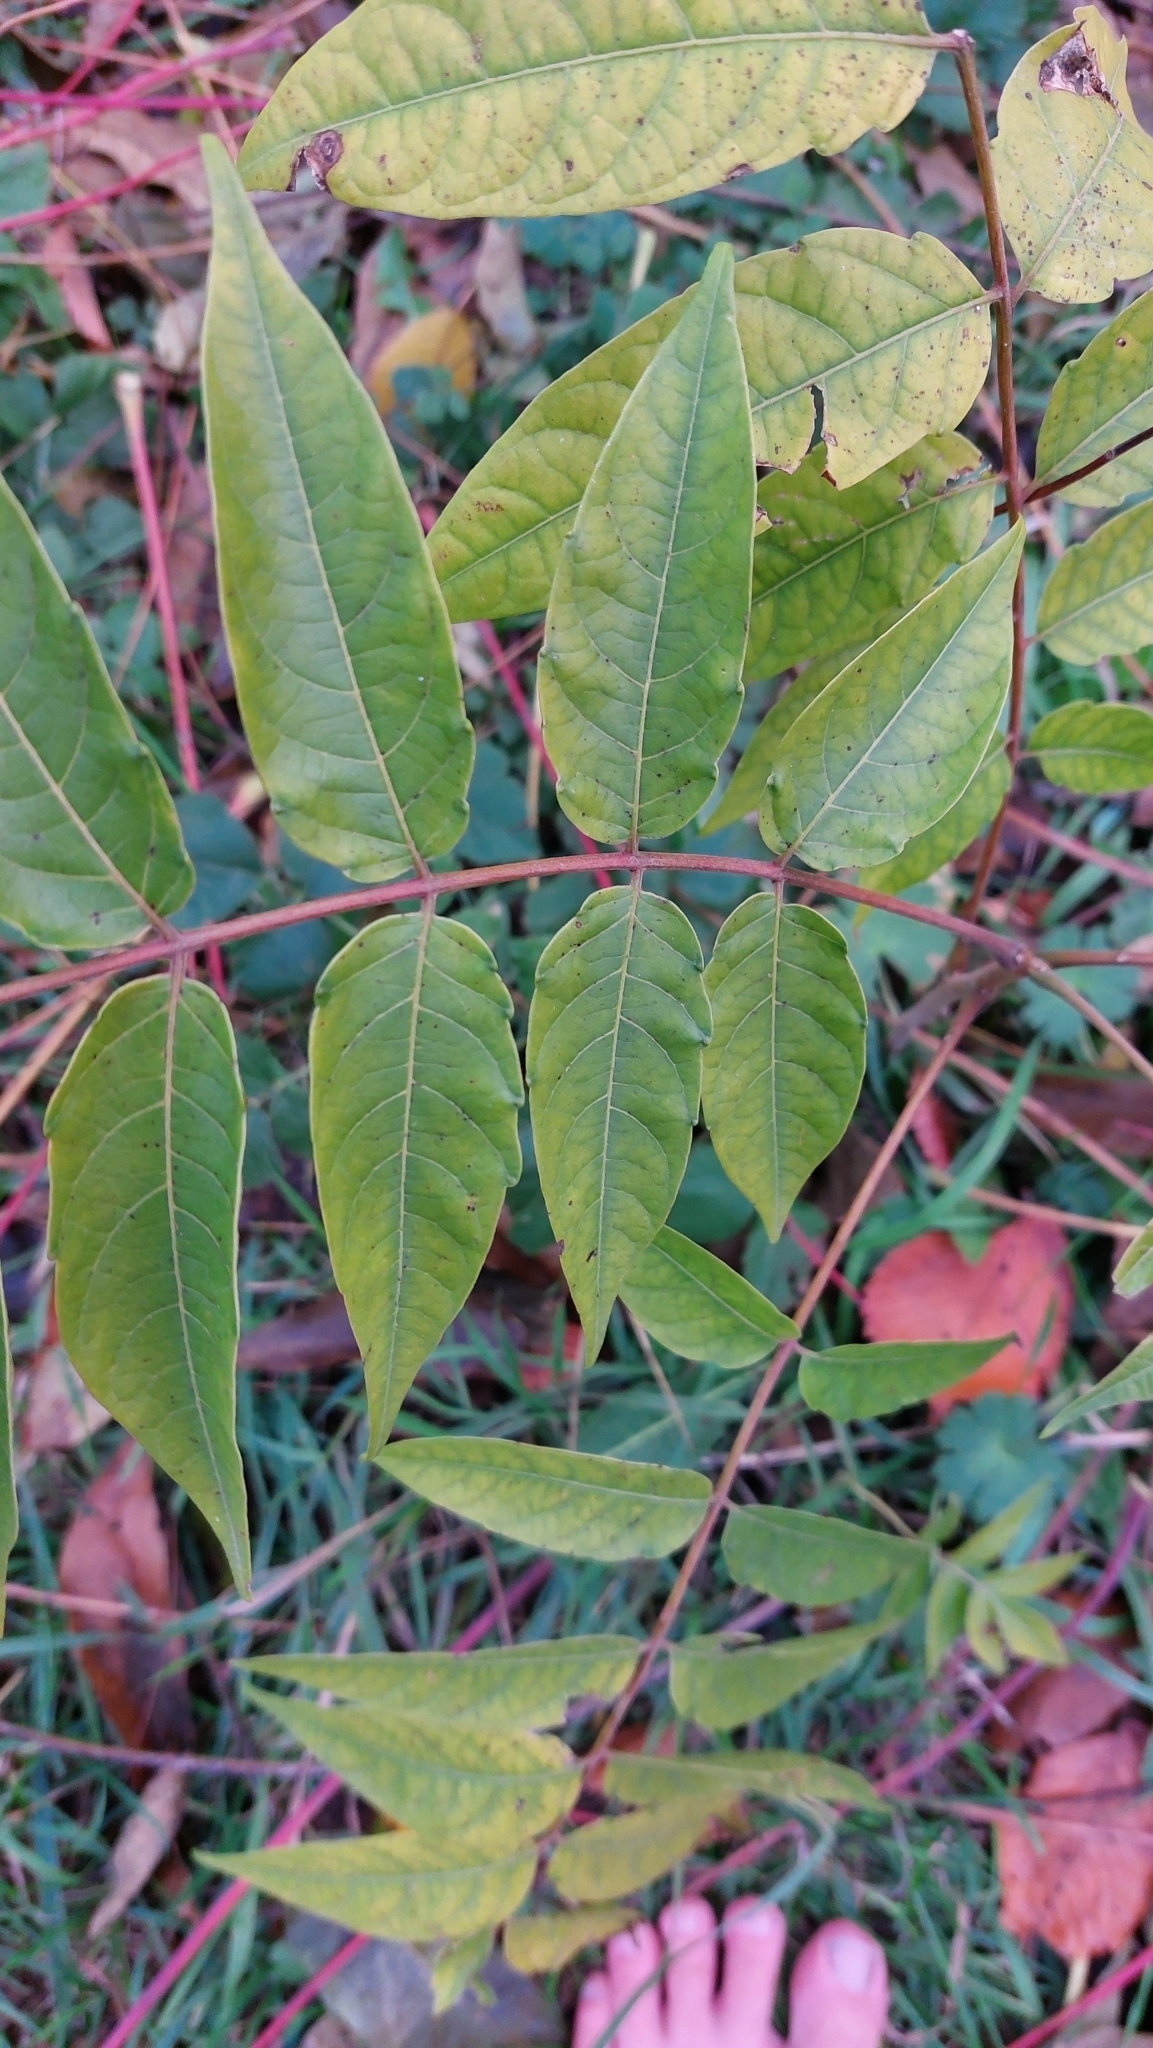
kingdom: Plantae
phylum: Tracheophyta
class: Magnoliopsida
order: Sapindales
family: Simaroubaceae
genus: Ailanthus
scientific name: Ailanthus altissima
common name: Tree-of-heaven
